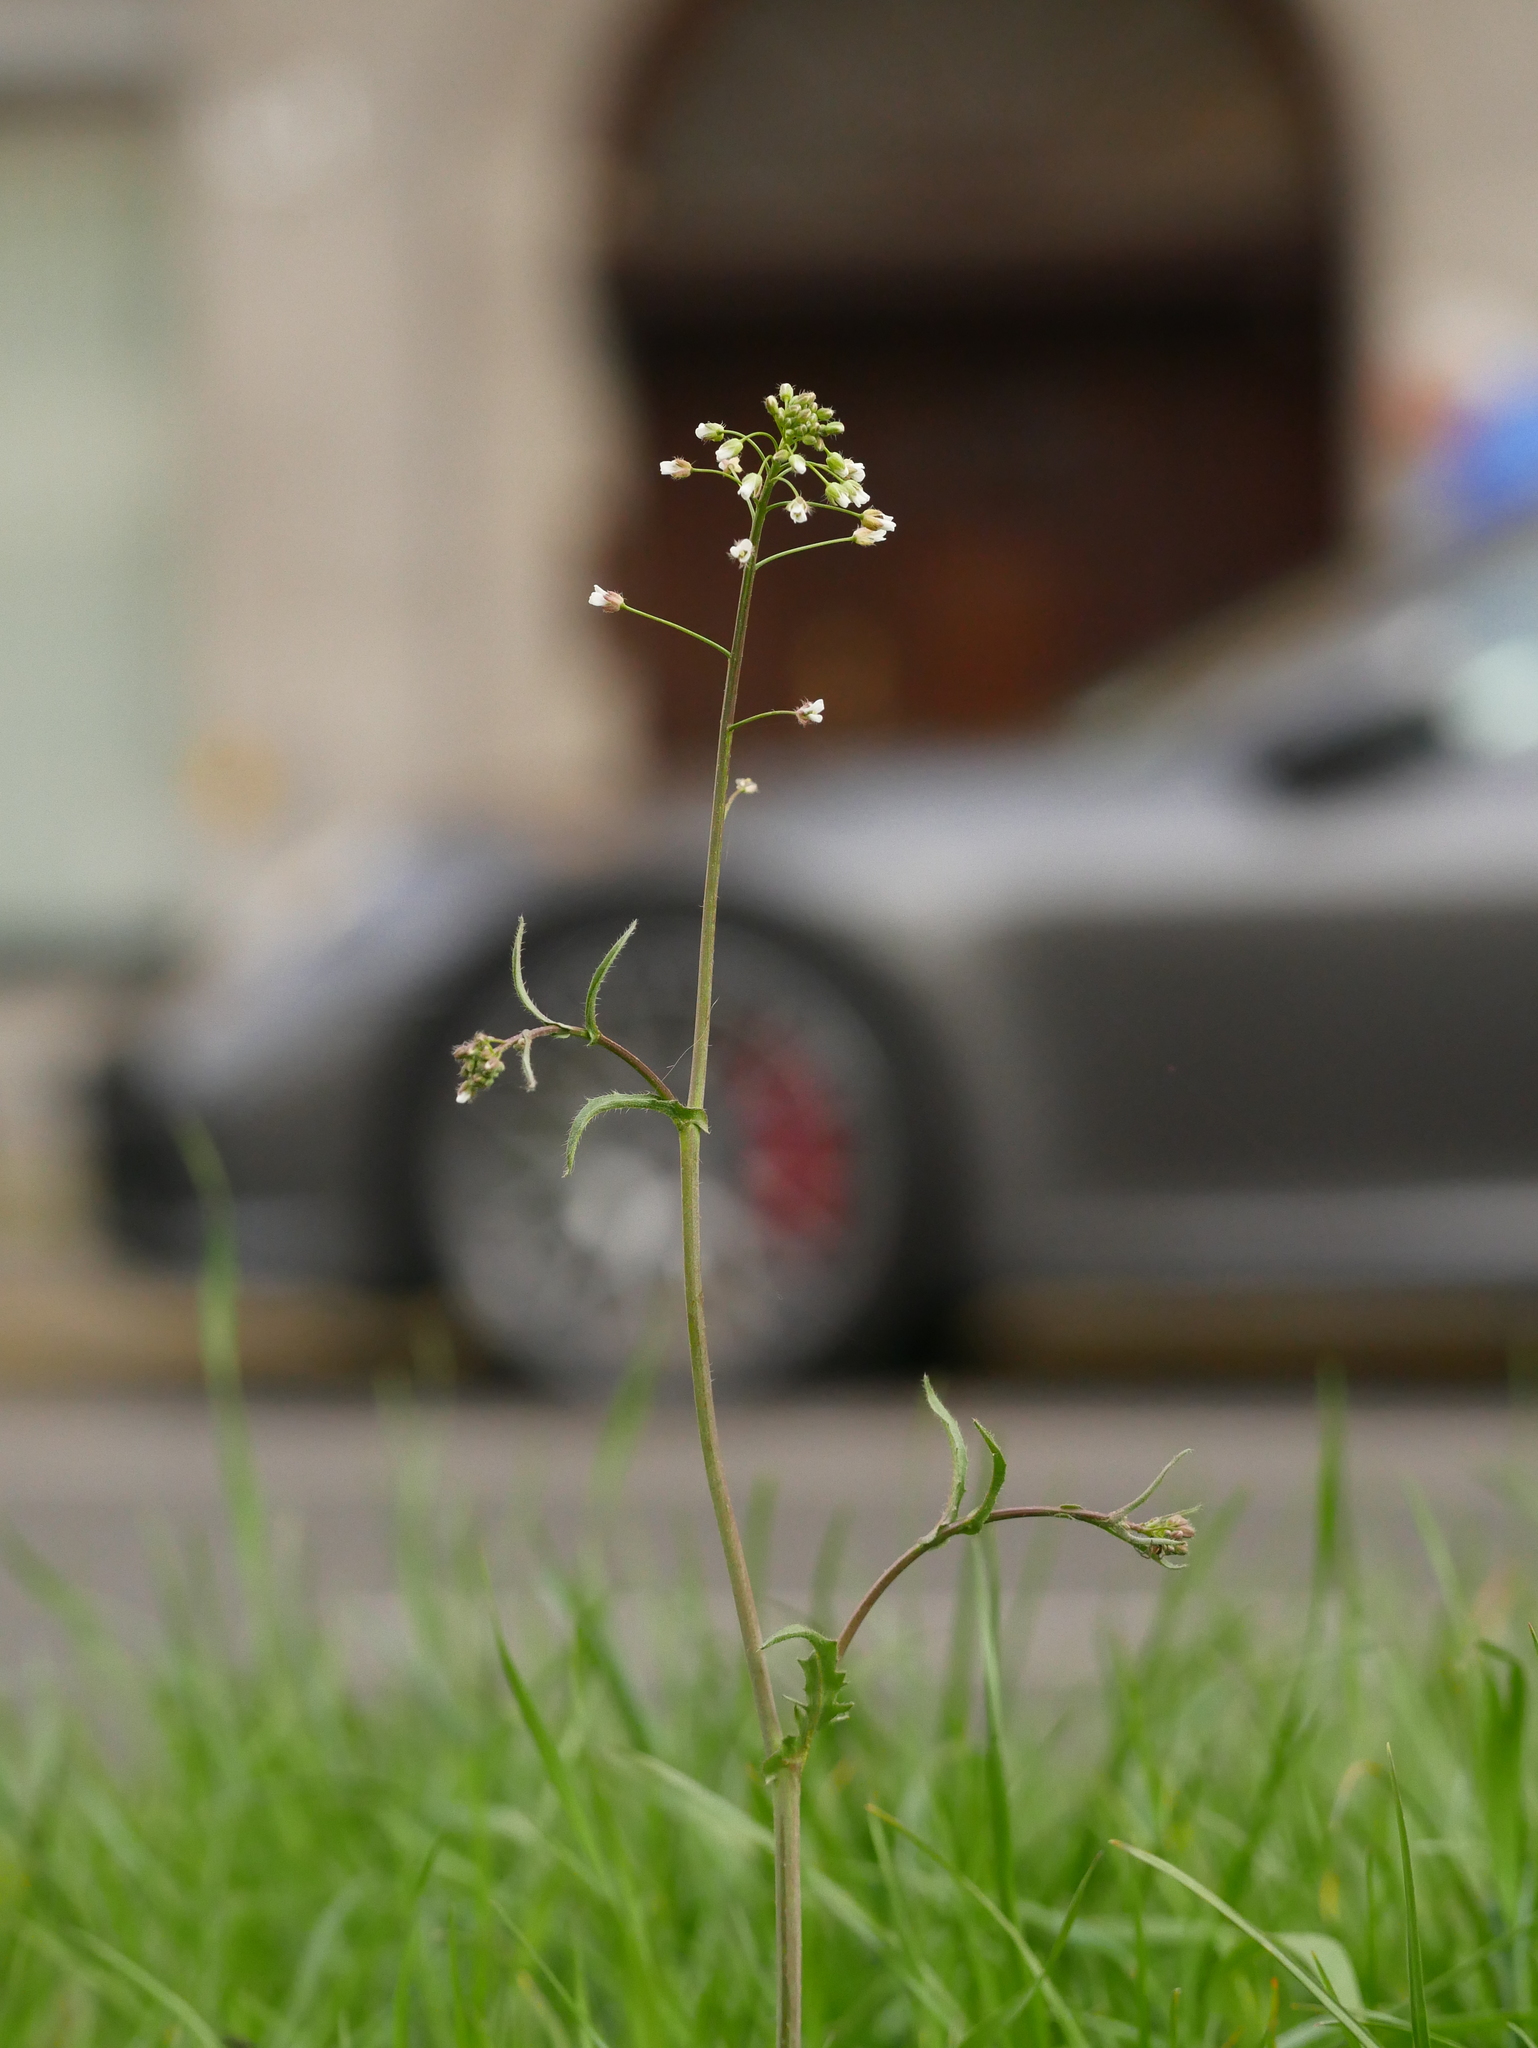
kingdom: Plantae
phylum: Tracheophyta
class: Magnoliopsida
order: Brassicales
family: Brassicaceae
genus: Capsella
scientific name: Capsella bursa-pastoris
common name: Shepherd's purse
